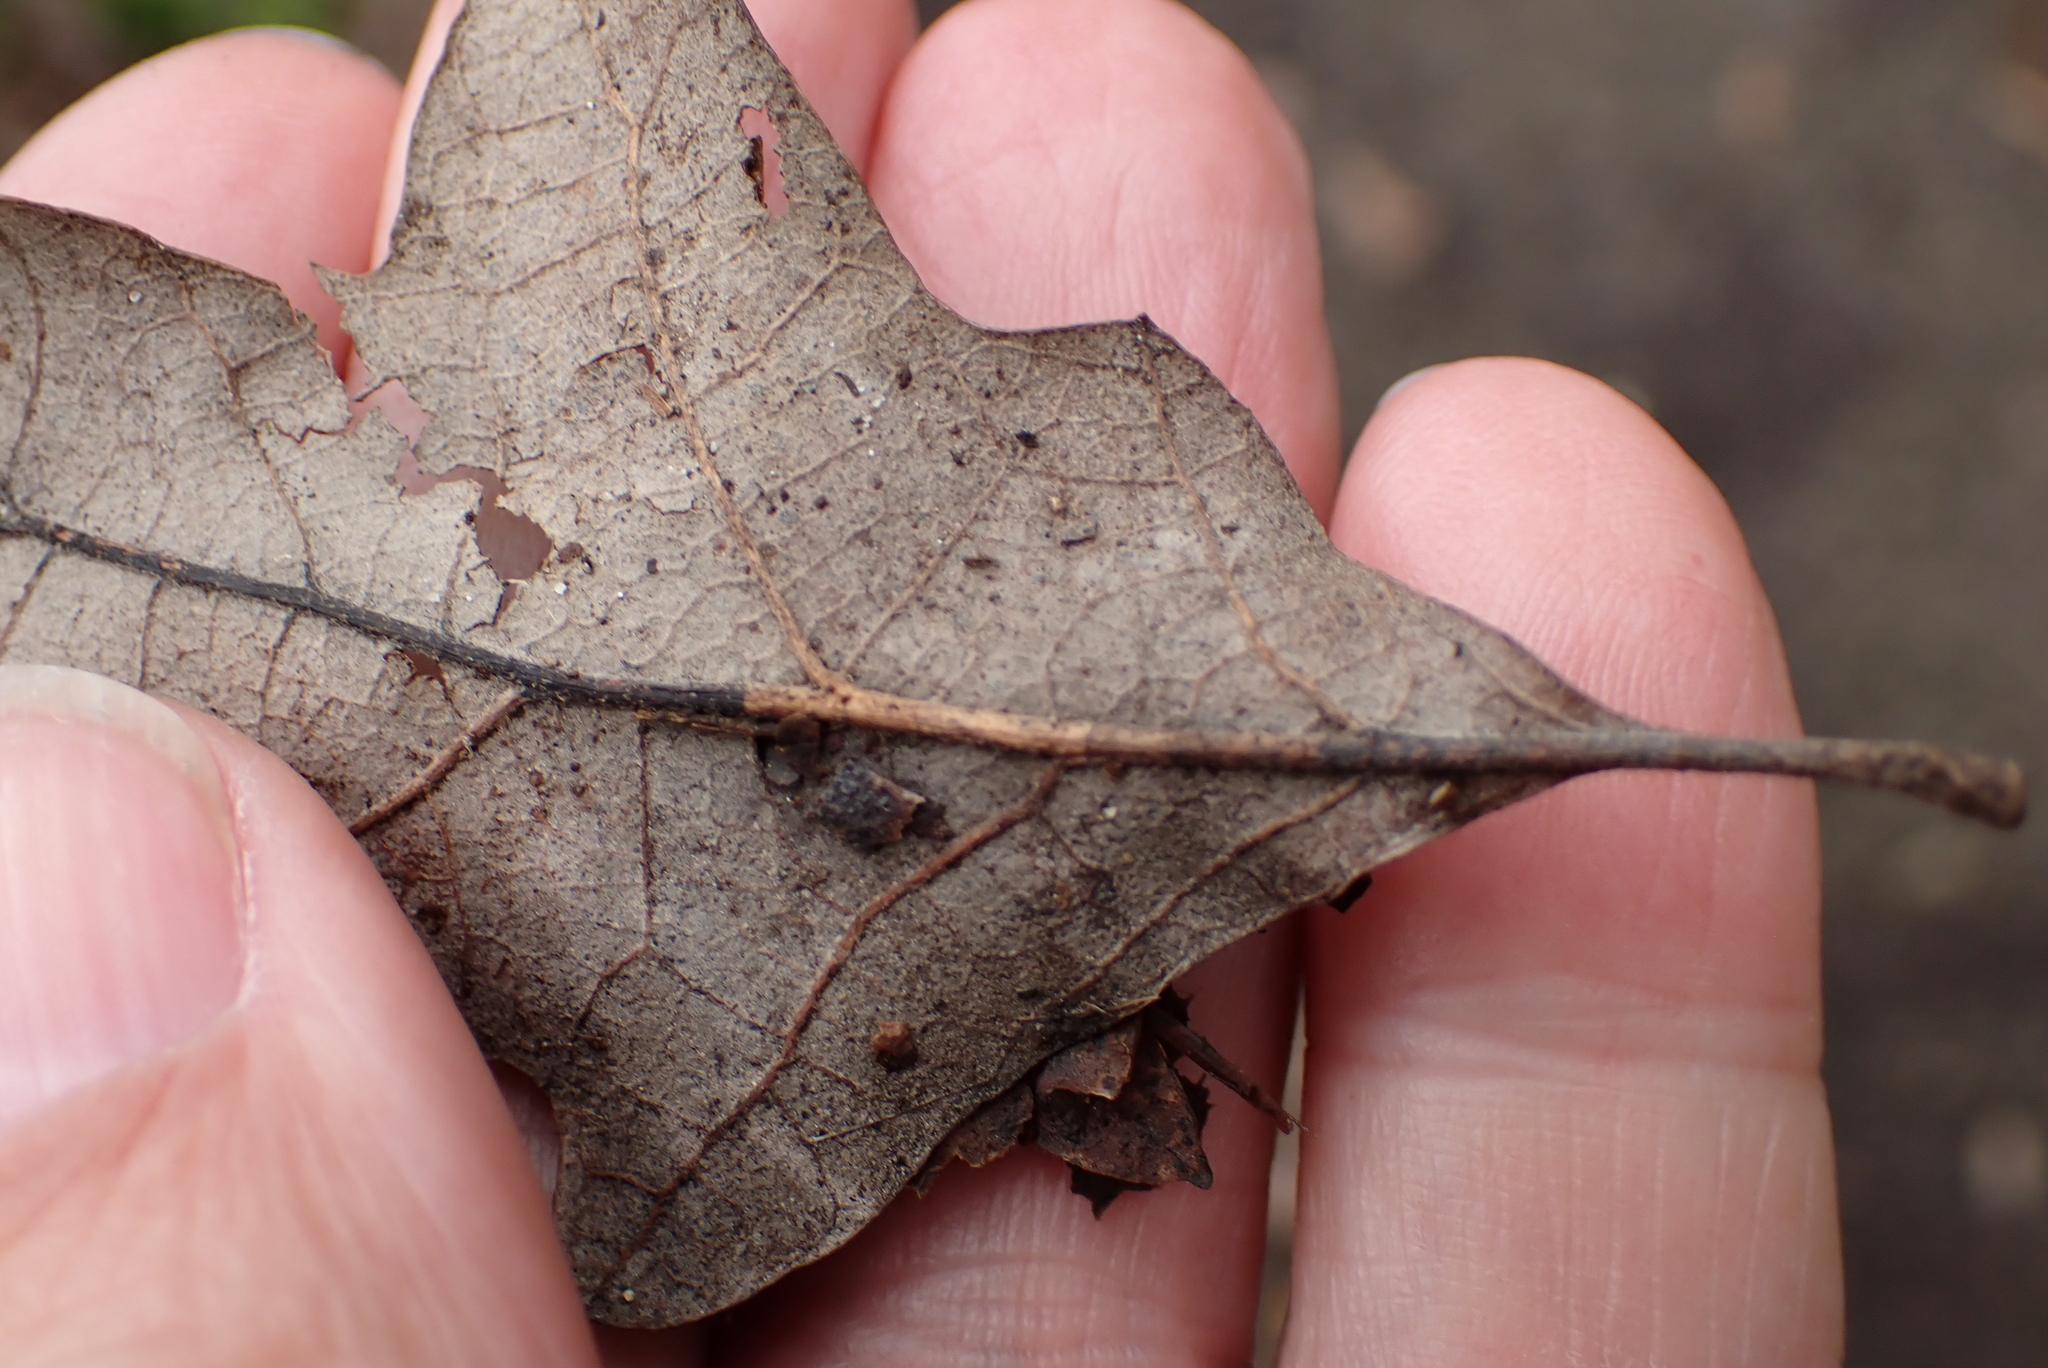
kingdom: Plantae
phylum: Tracheophyta
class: Magnoliopsida
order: Fagales
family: Fagaceae
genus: Quercus
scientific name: Quercus petraea
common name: Sessile oak
